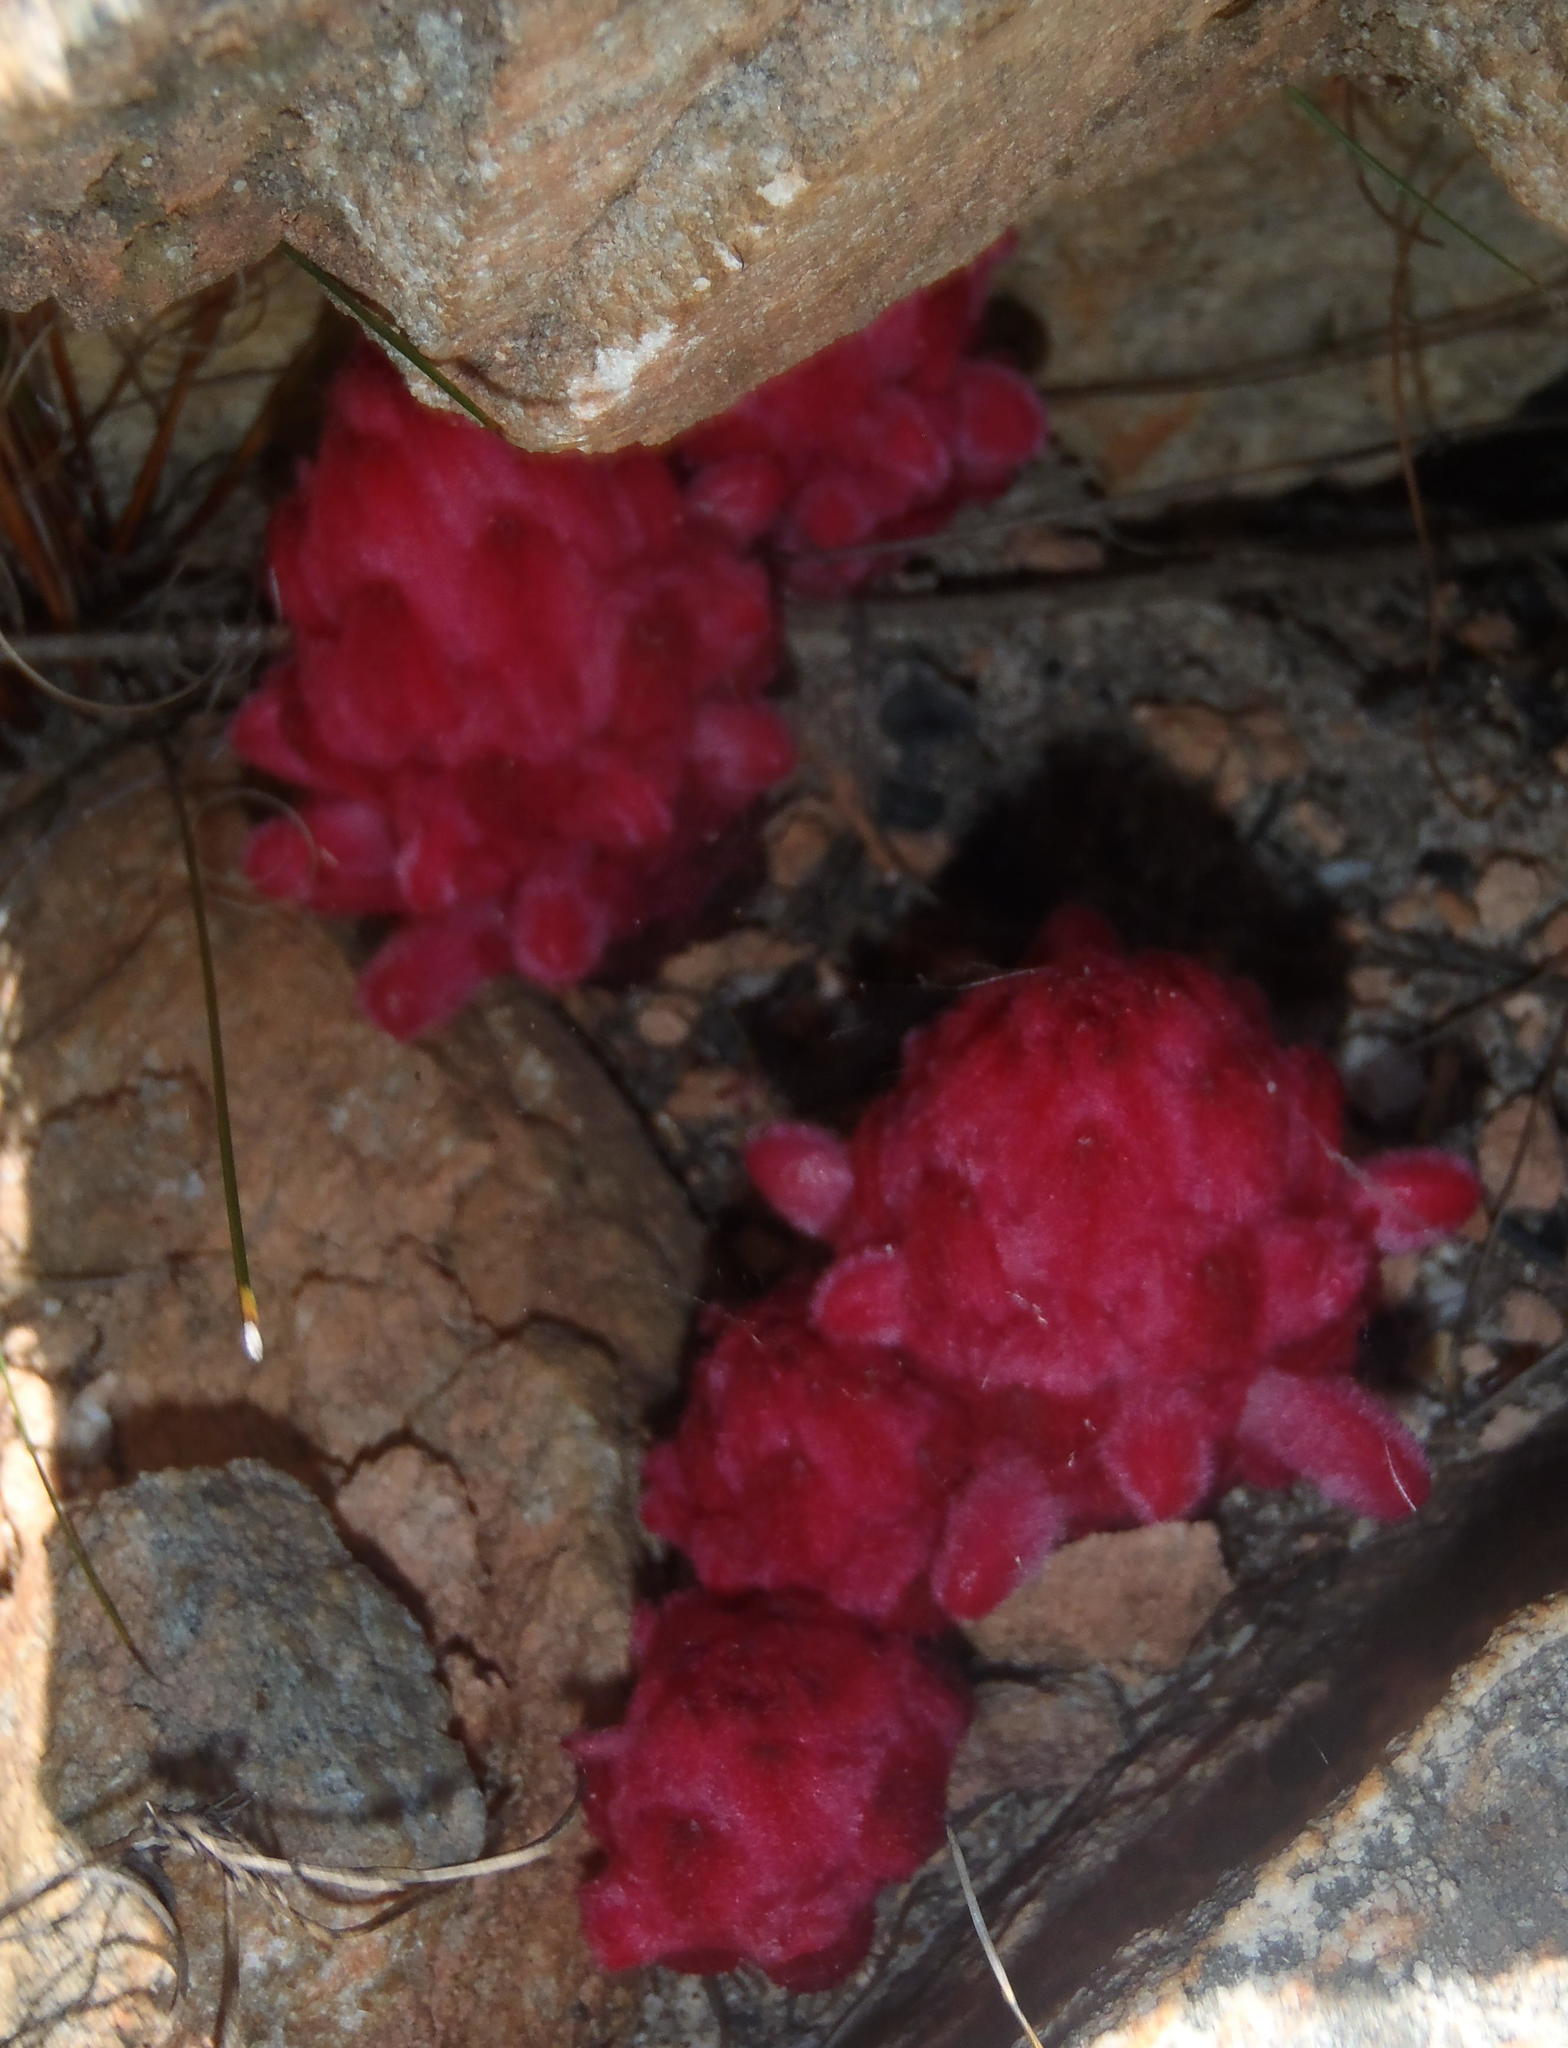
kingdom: Plantae
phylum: Tracheophyta
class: Magnoliopsida
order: Lamiales
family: Orobanchaceae
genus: Hyobanche
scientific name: Hyobanche sanguinea
